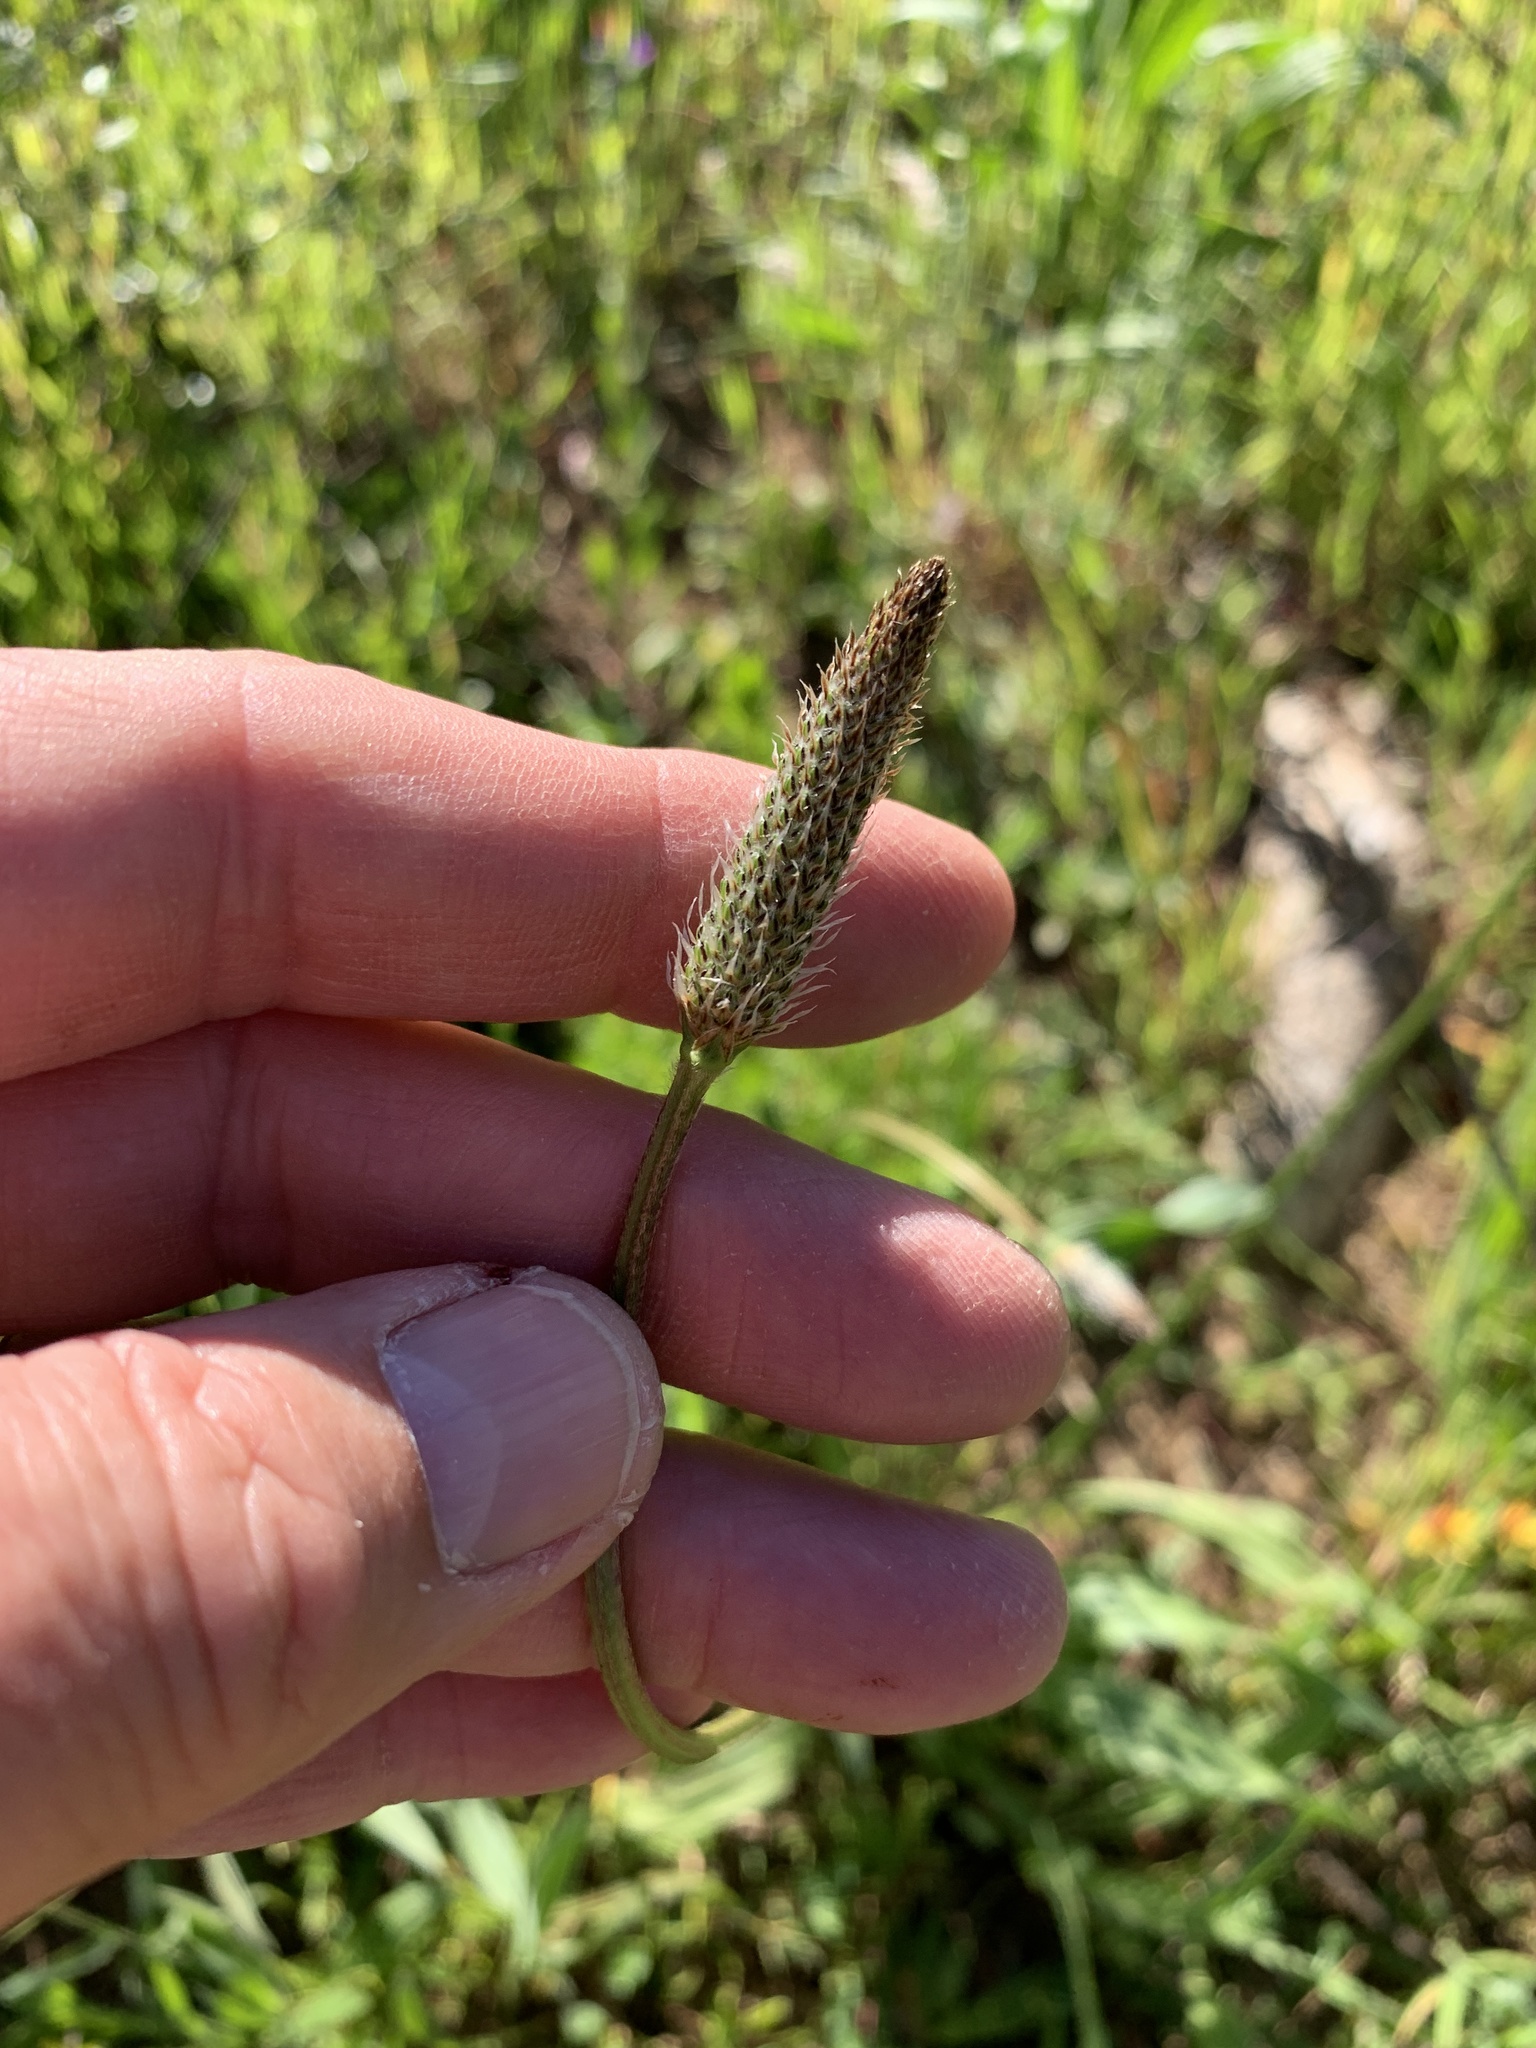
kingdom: Plantae
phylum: Tracheophyta
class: Magnoliopsida
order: Lamiales
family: Plantaginaceae
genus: Plantago
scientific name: Plantago lanceolata
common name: Ribwort plantain
